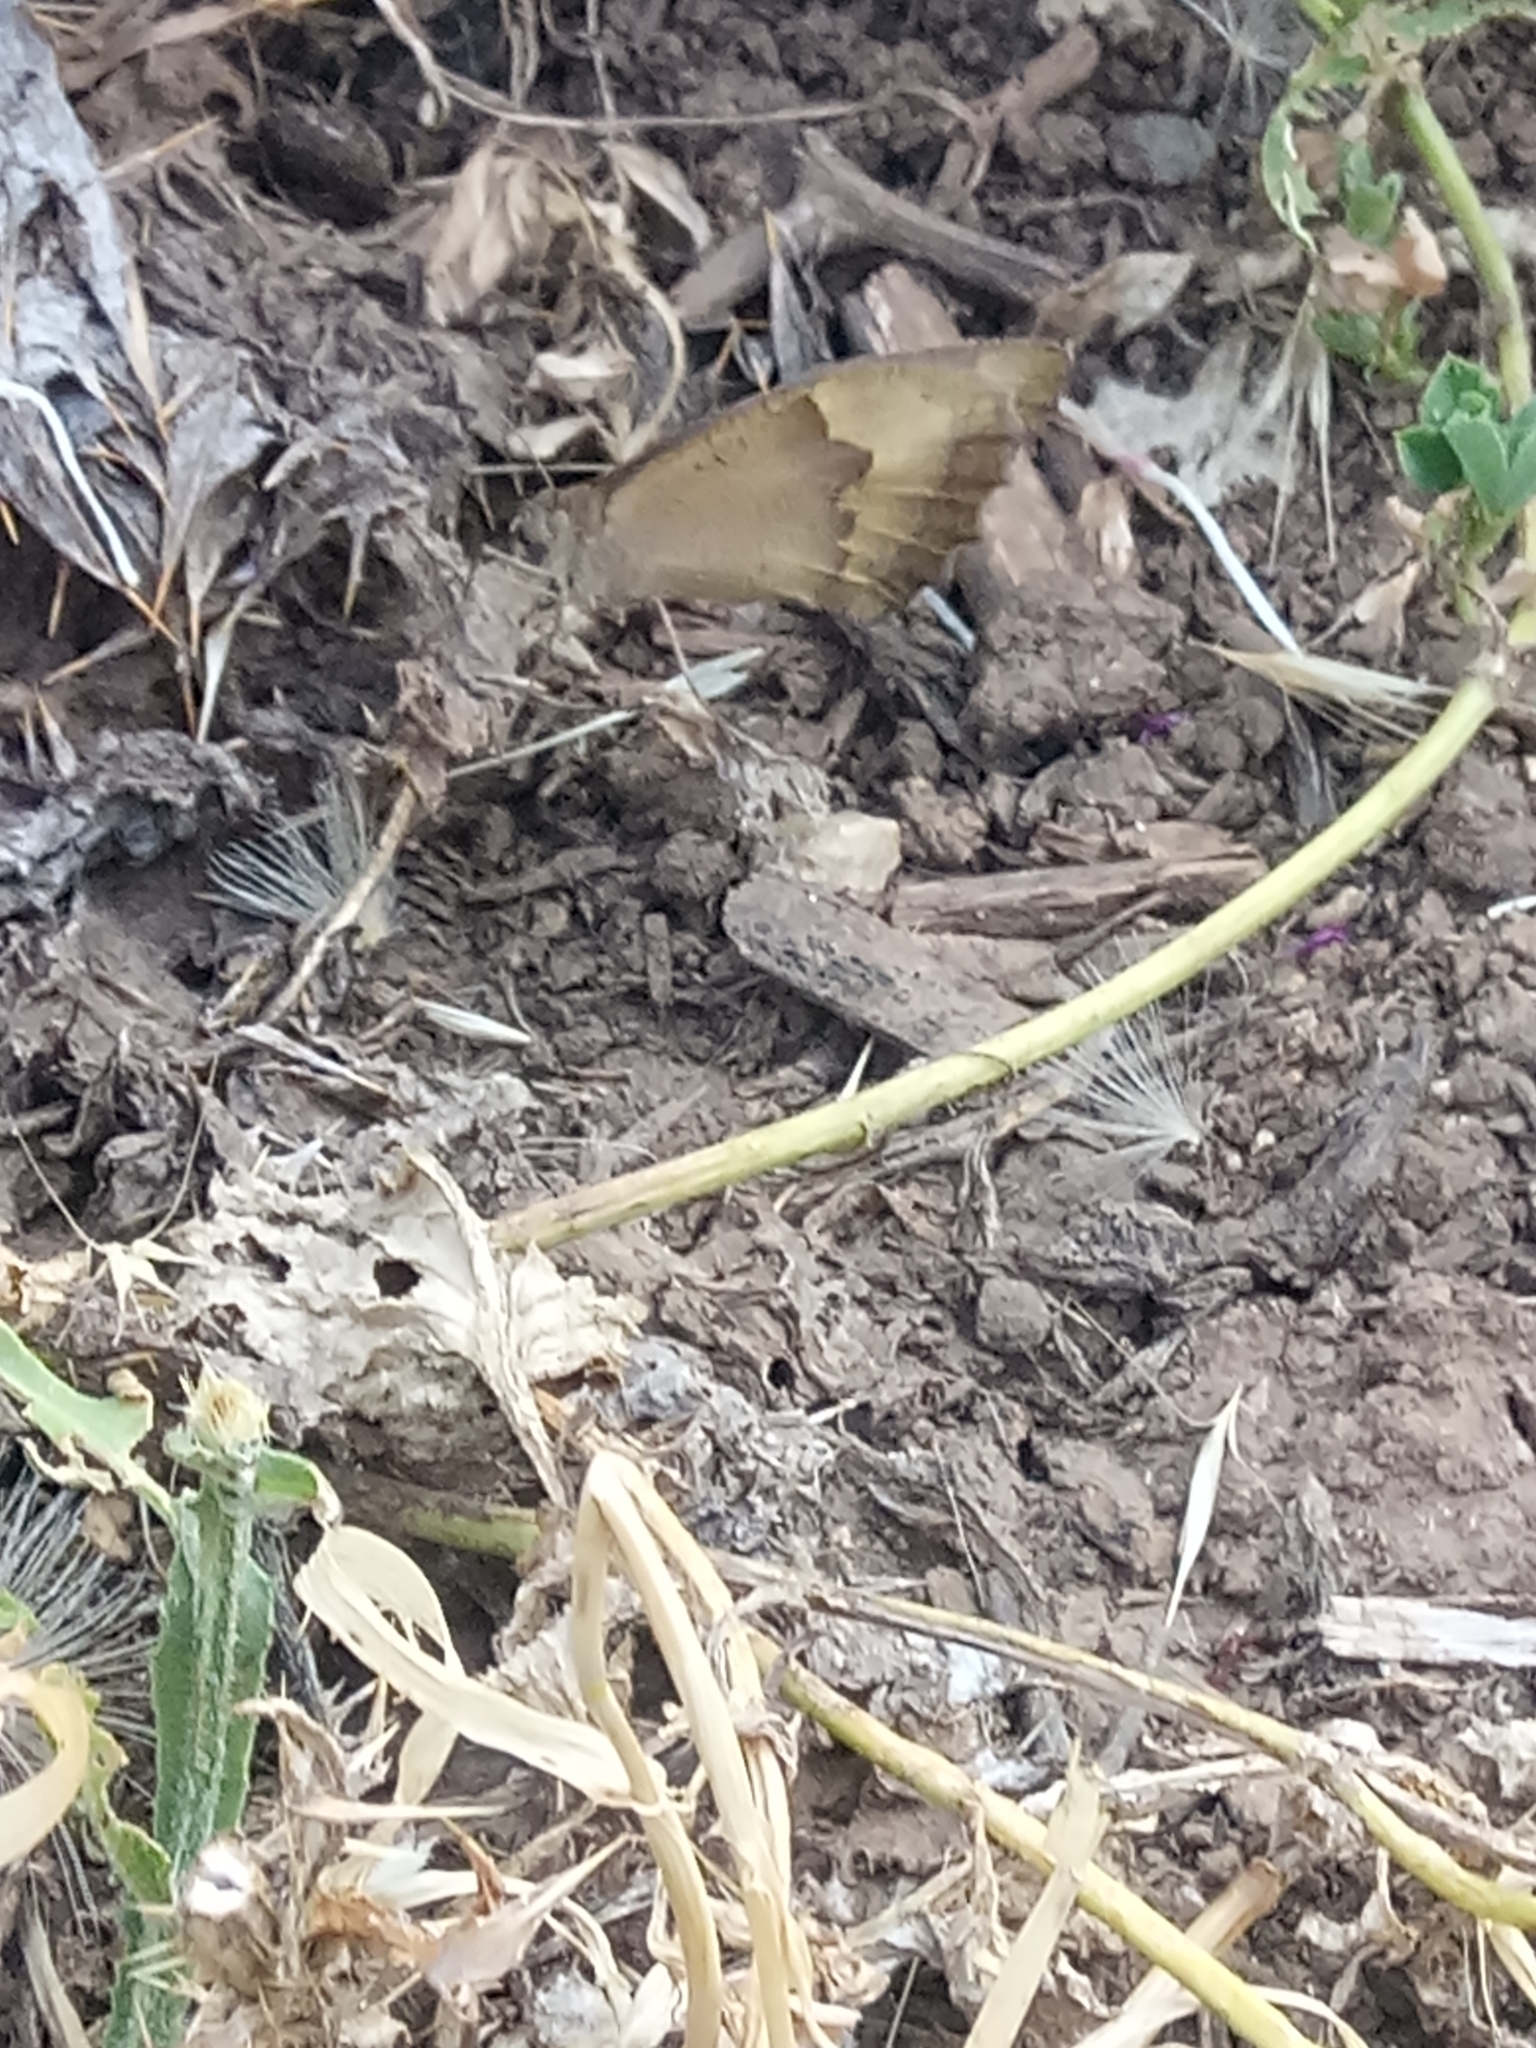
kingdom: Animalia
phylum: Arthropoda
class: Insecta
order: Lepidoptera
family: Nymphalidae
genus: Maniola
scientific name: Maniola jurtina
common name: Meadow brown
